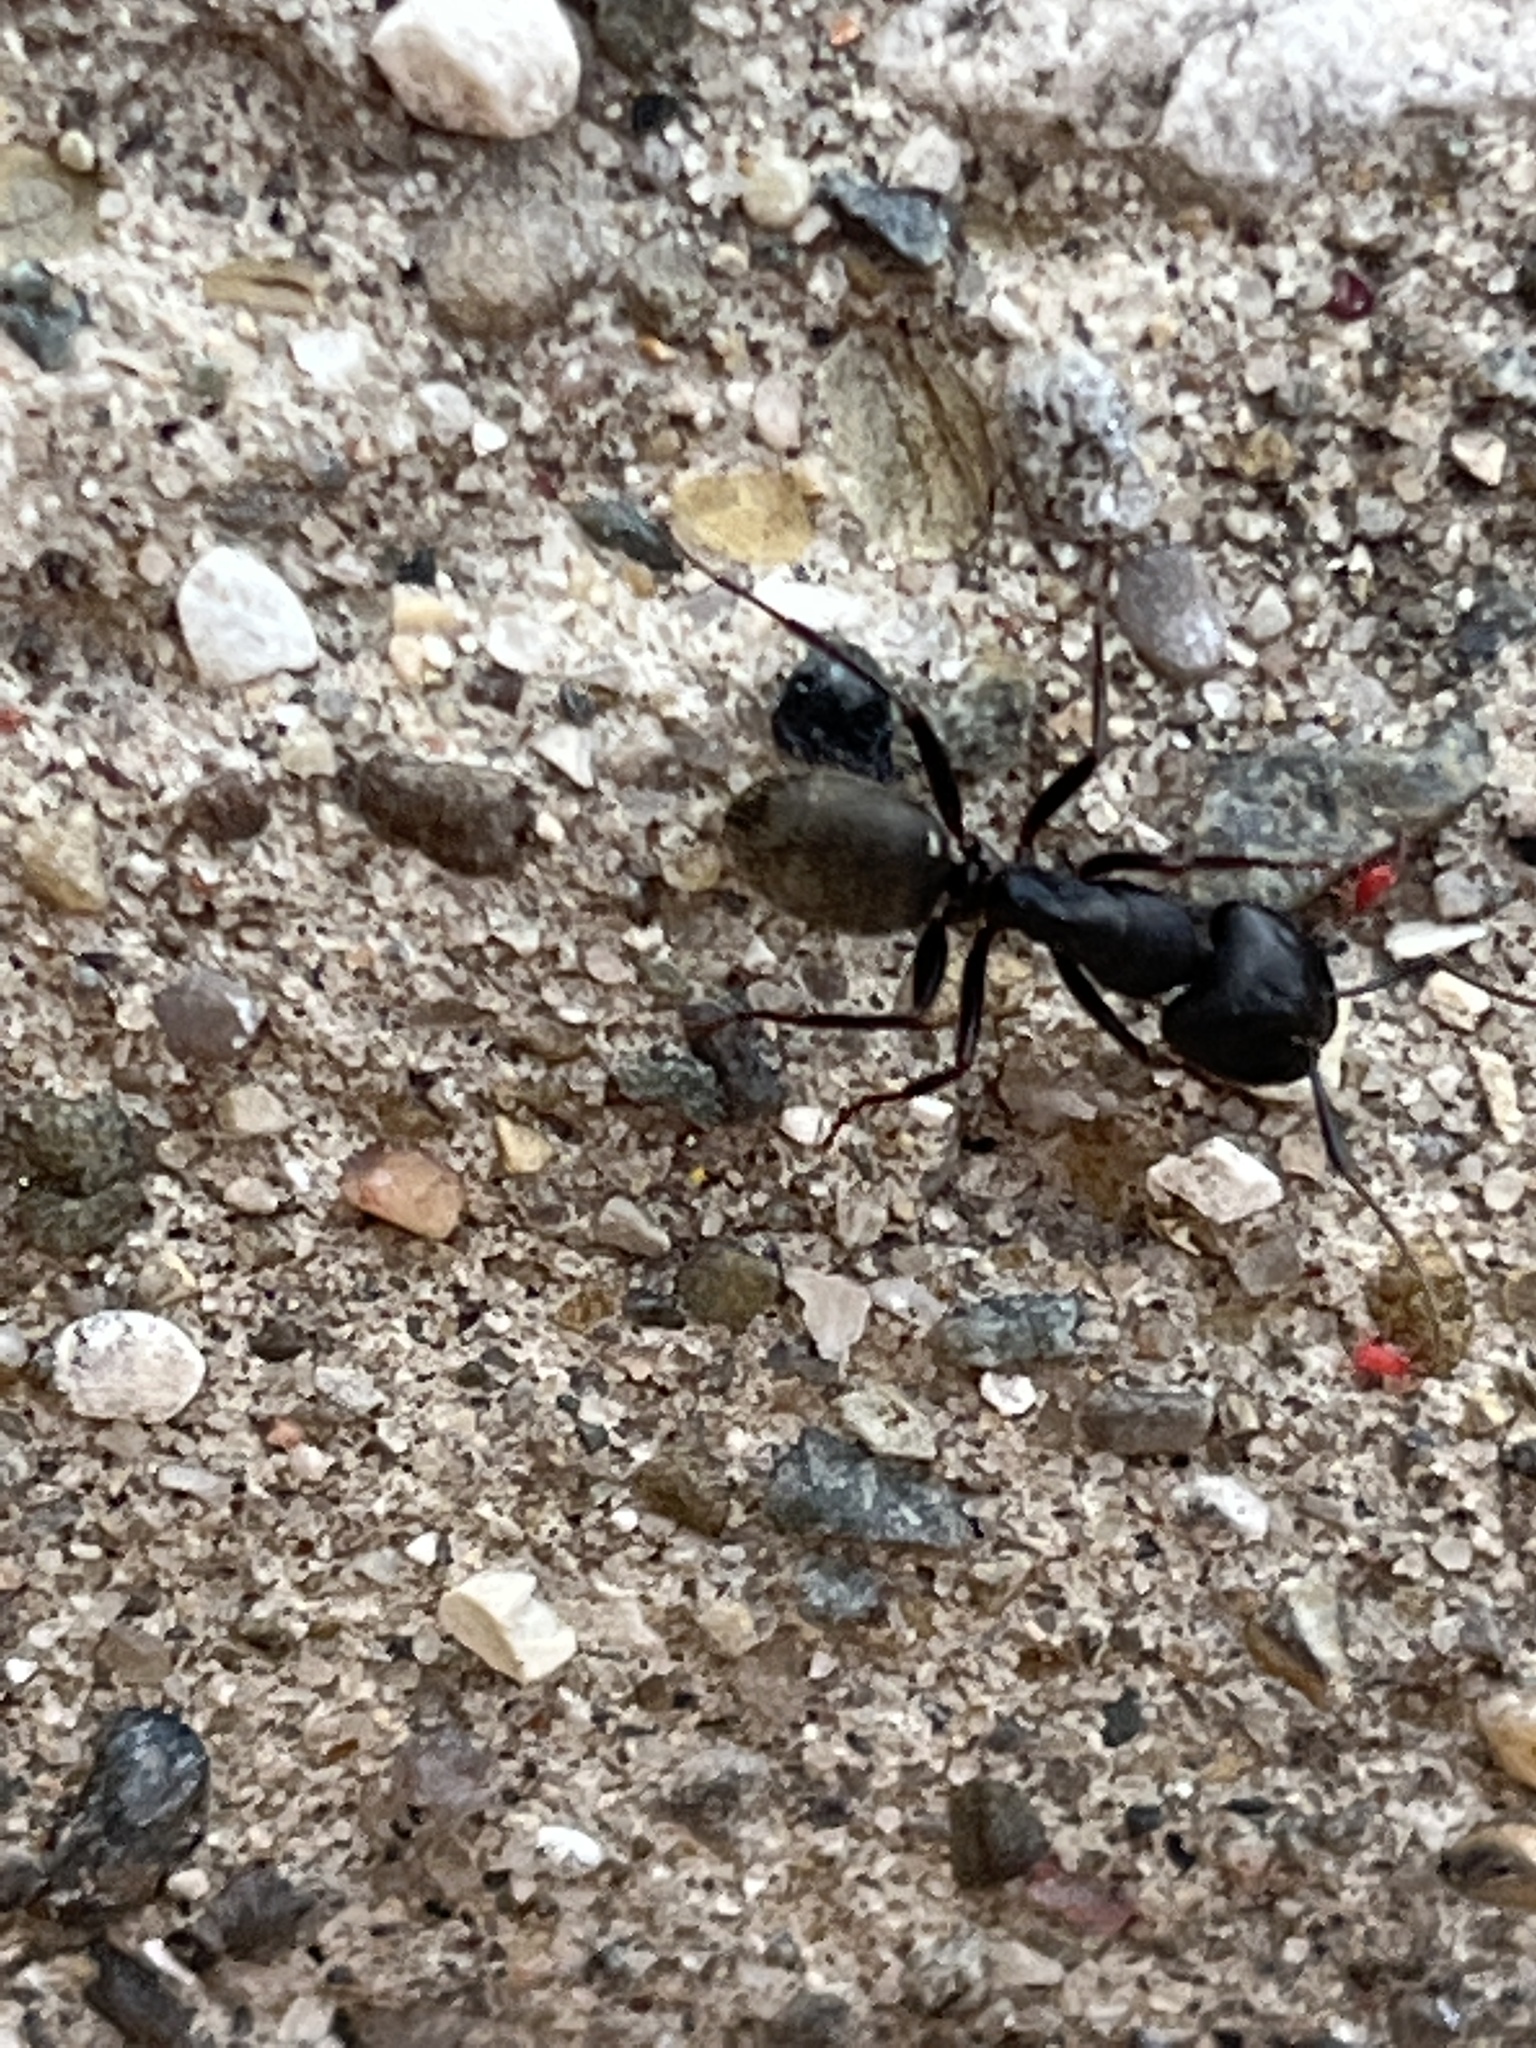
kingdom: Animalia
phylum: Arthropoda
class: Insecta
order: Hymenoptera
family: Formicidae
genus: Camponotus
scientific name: Camponotus pennsylvanicus
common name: Black carpenter ant
